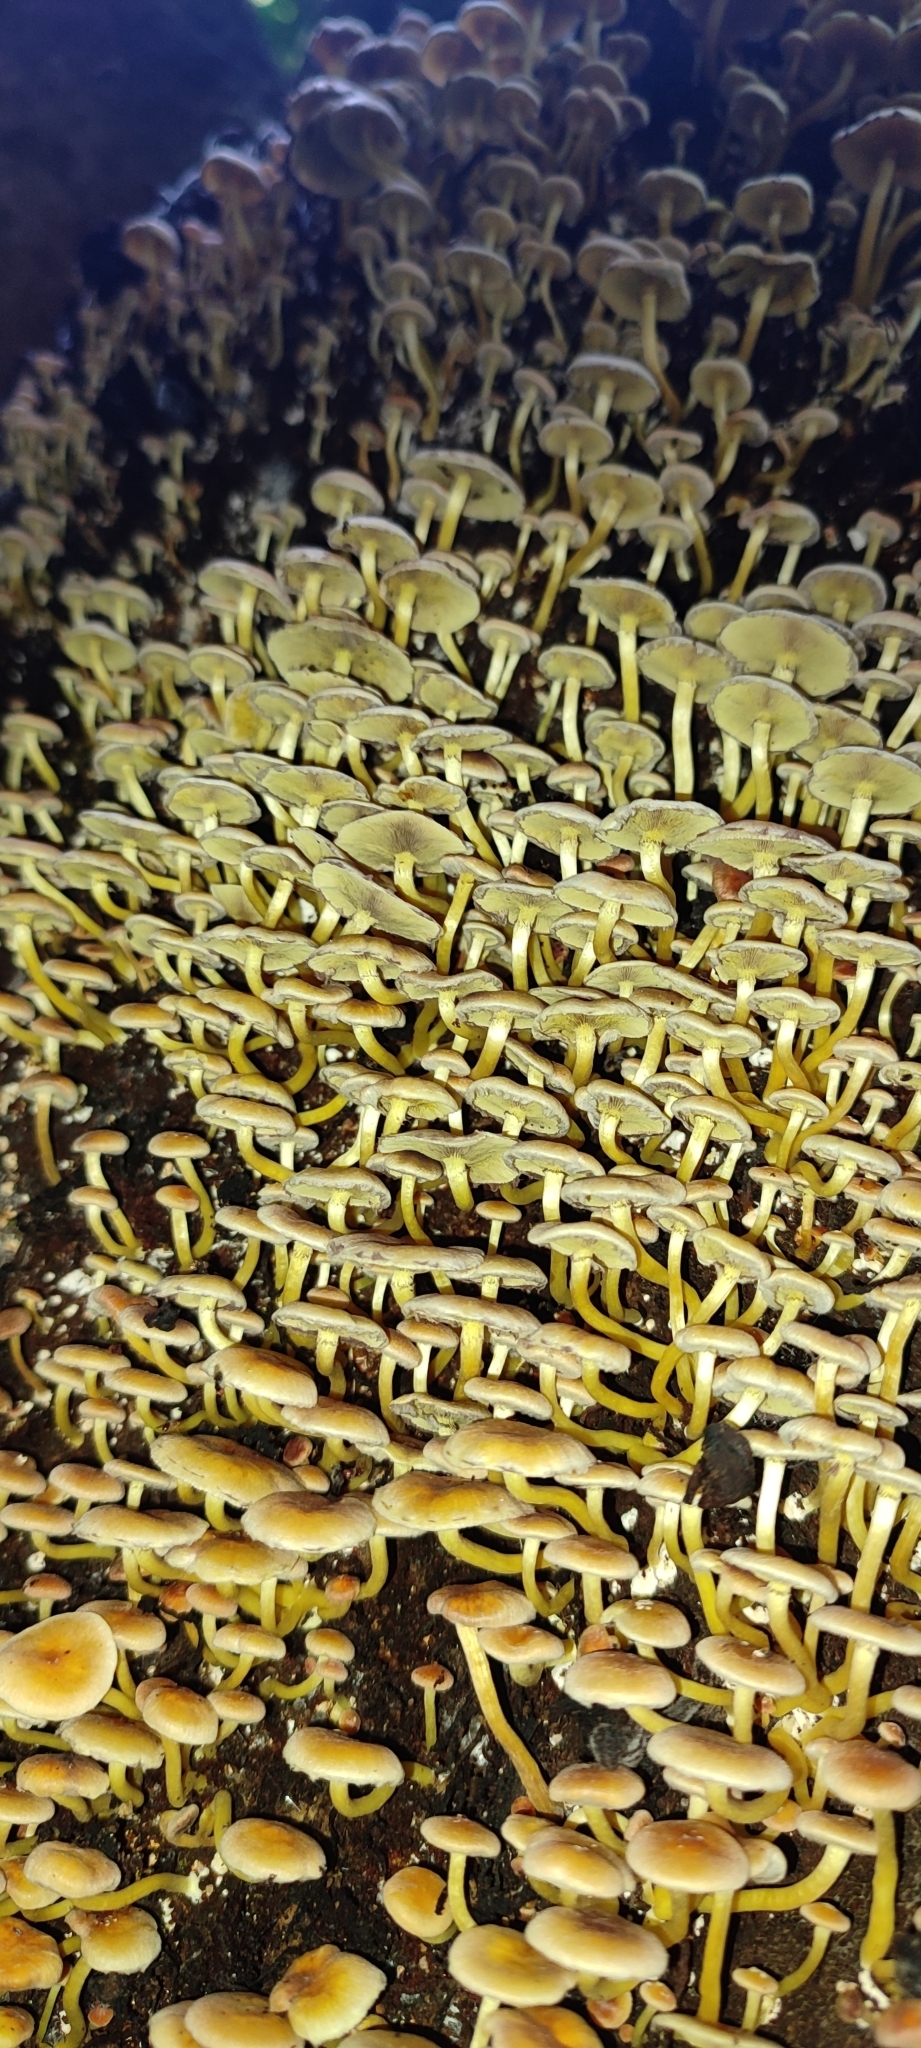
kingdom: Fungi
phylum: Basidiomycota
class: Agaricomycetes
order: Agaricales
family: Strophariaceae
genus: Hypholoma
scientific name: Hypholoma fasciculare
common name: Sulphur tuft
